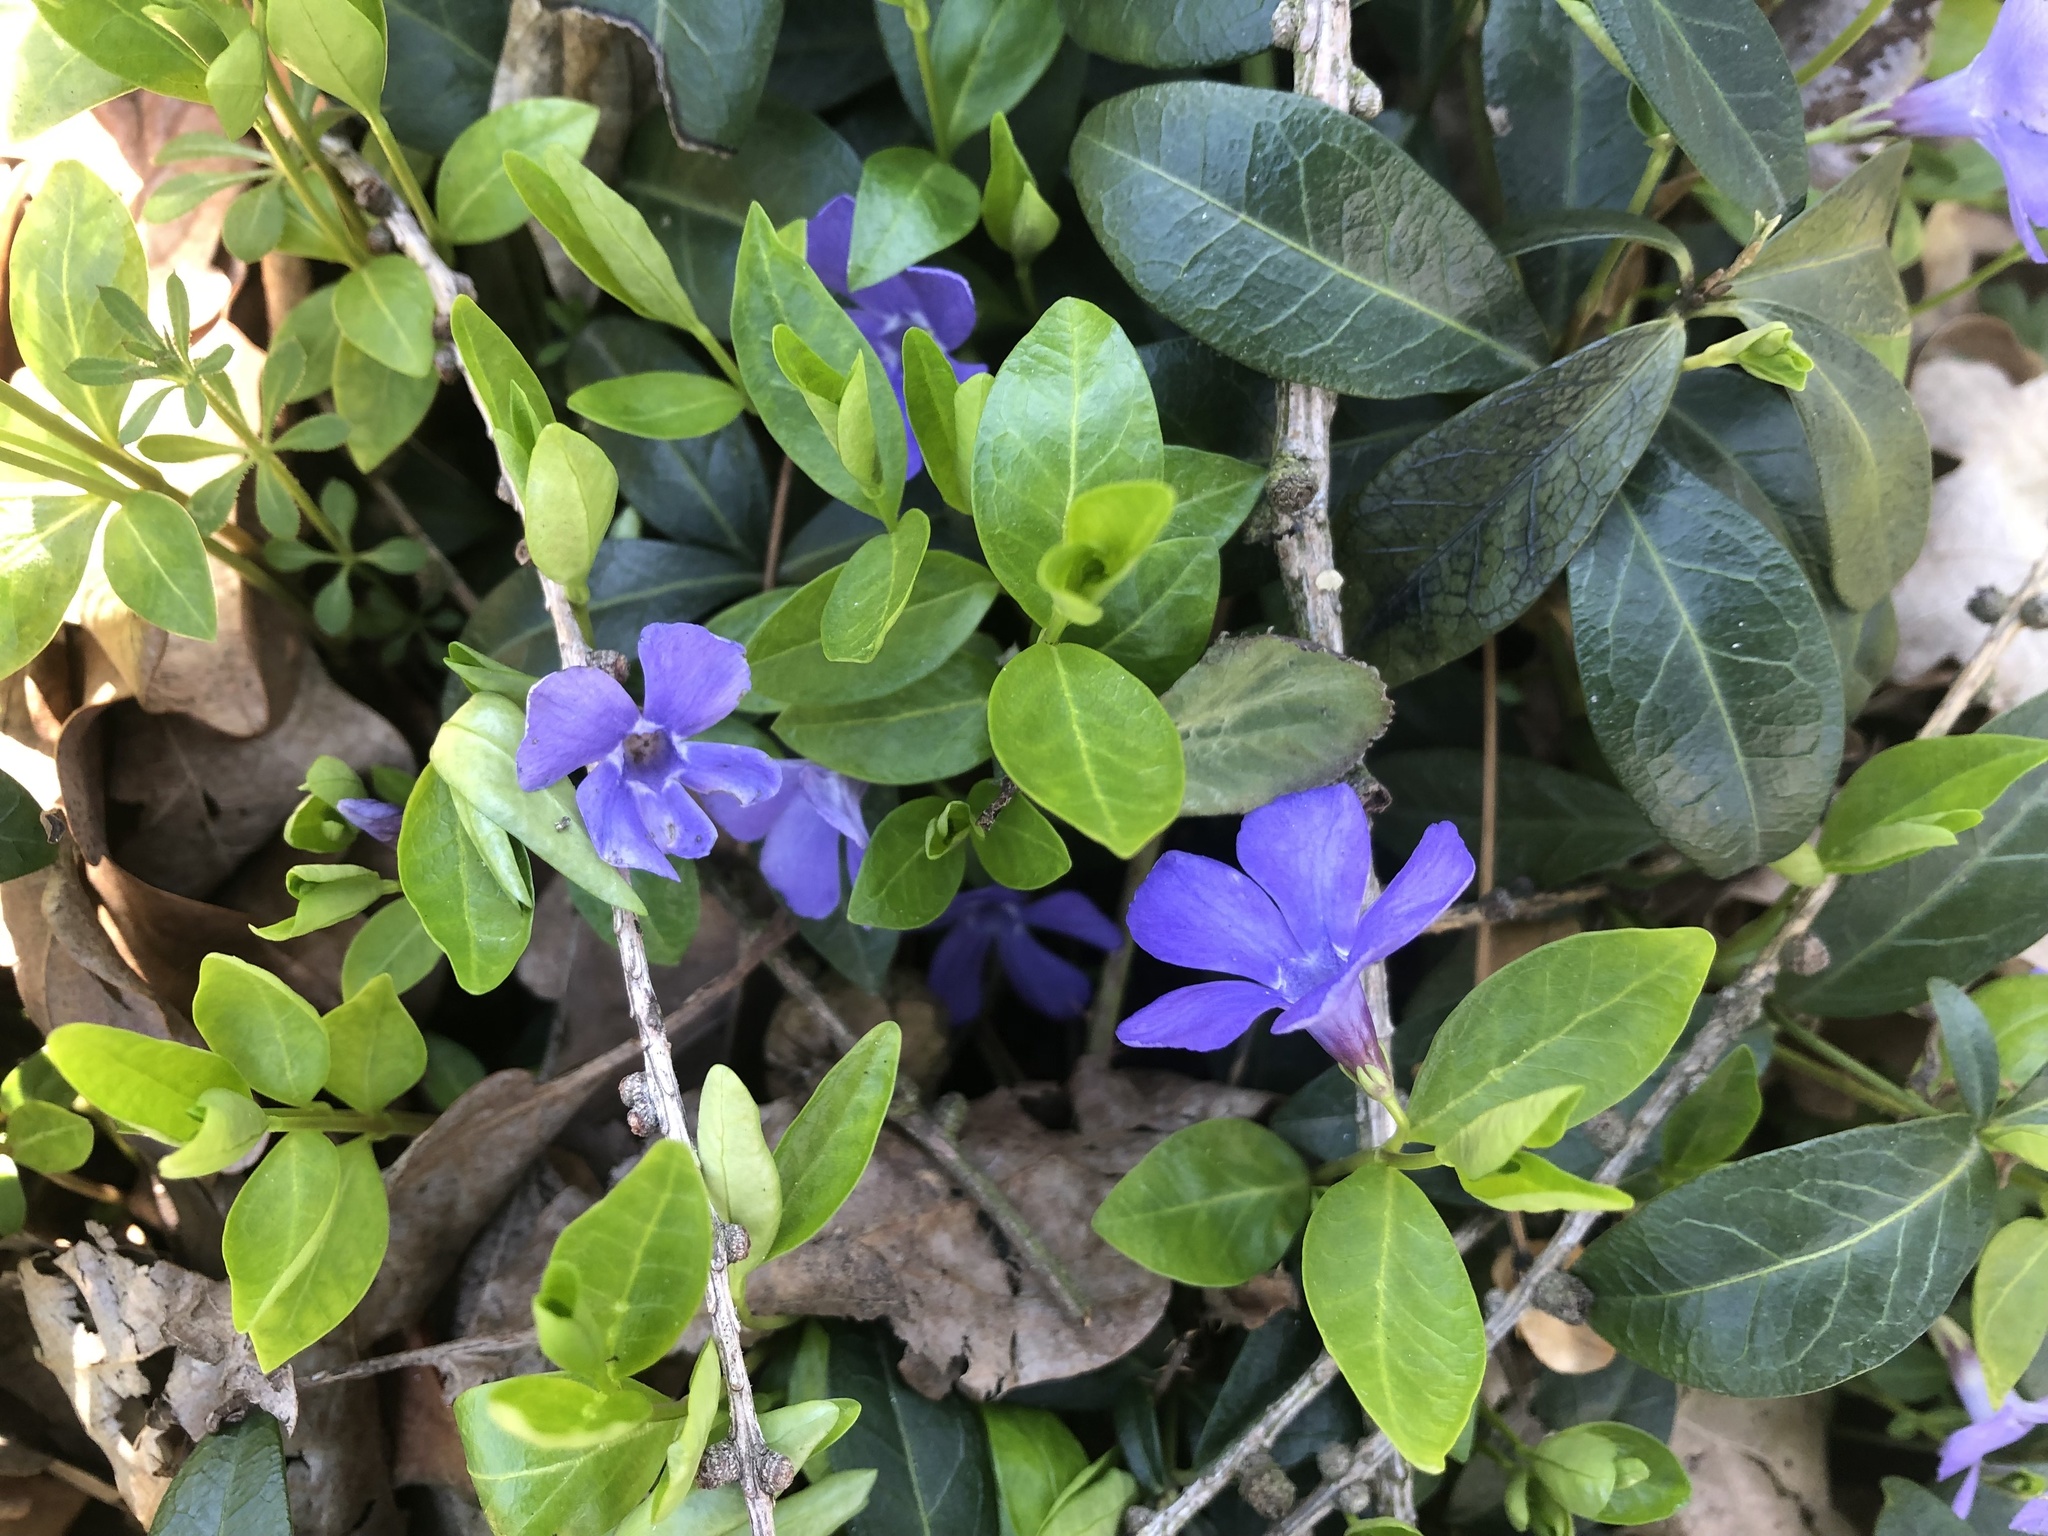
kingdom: Plantae
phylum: Tracheophyta
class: Magnoliopsida
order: Gentianales
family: Apocynaceae
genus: Vinca
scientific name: Vinca minor
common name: Lesser periwinkle
